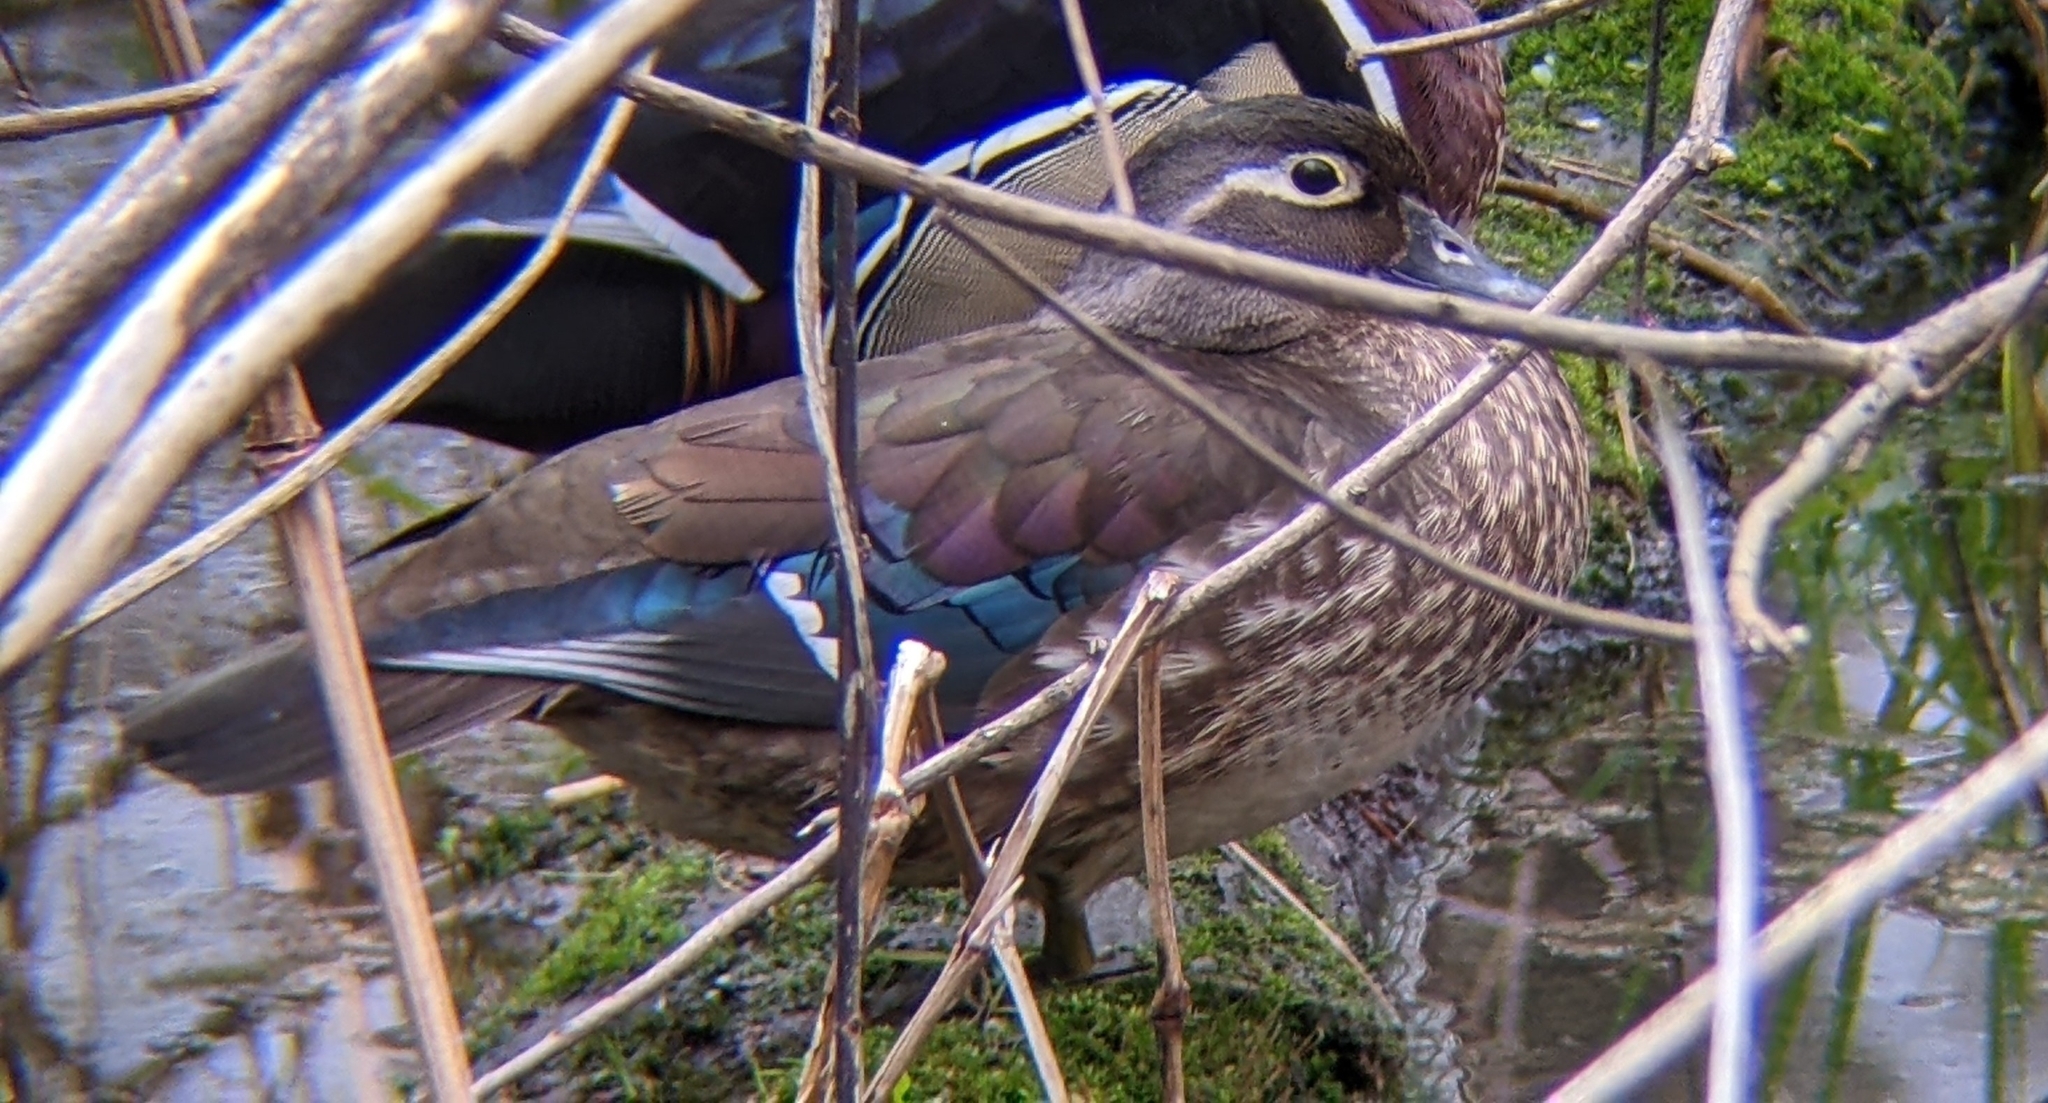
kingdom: Animalia
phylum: Chordata
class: Aves
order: Anseriformes
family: Anatidae
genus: Aix
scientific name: Aix sponsa
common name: Wood duck
